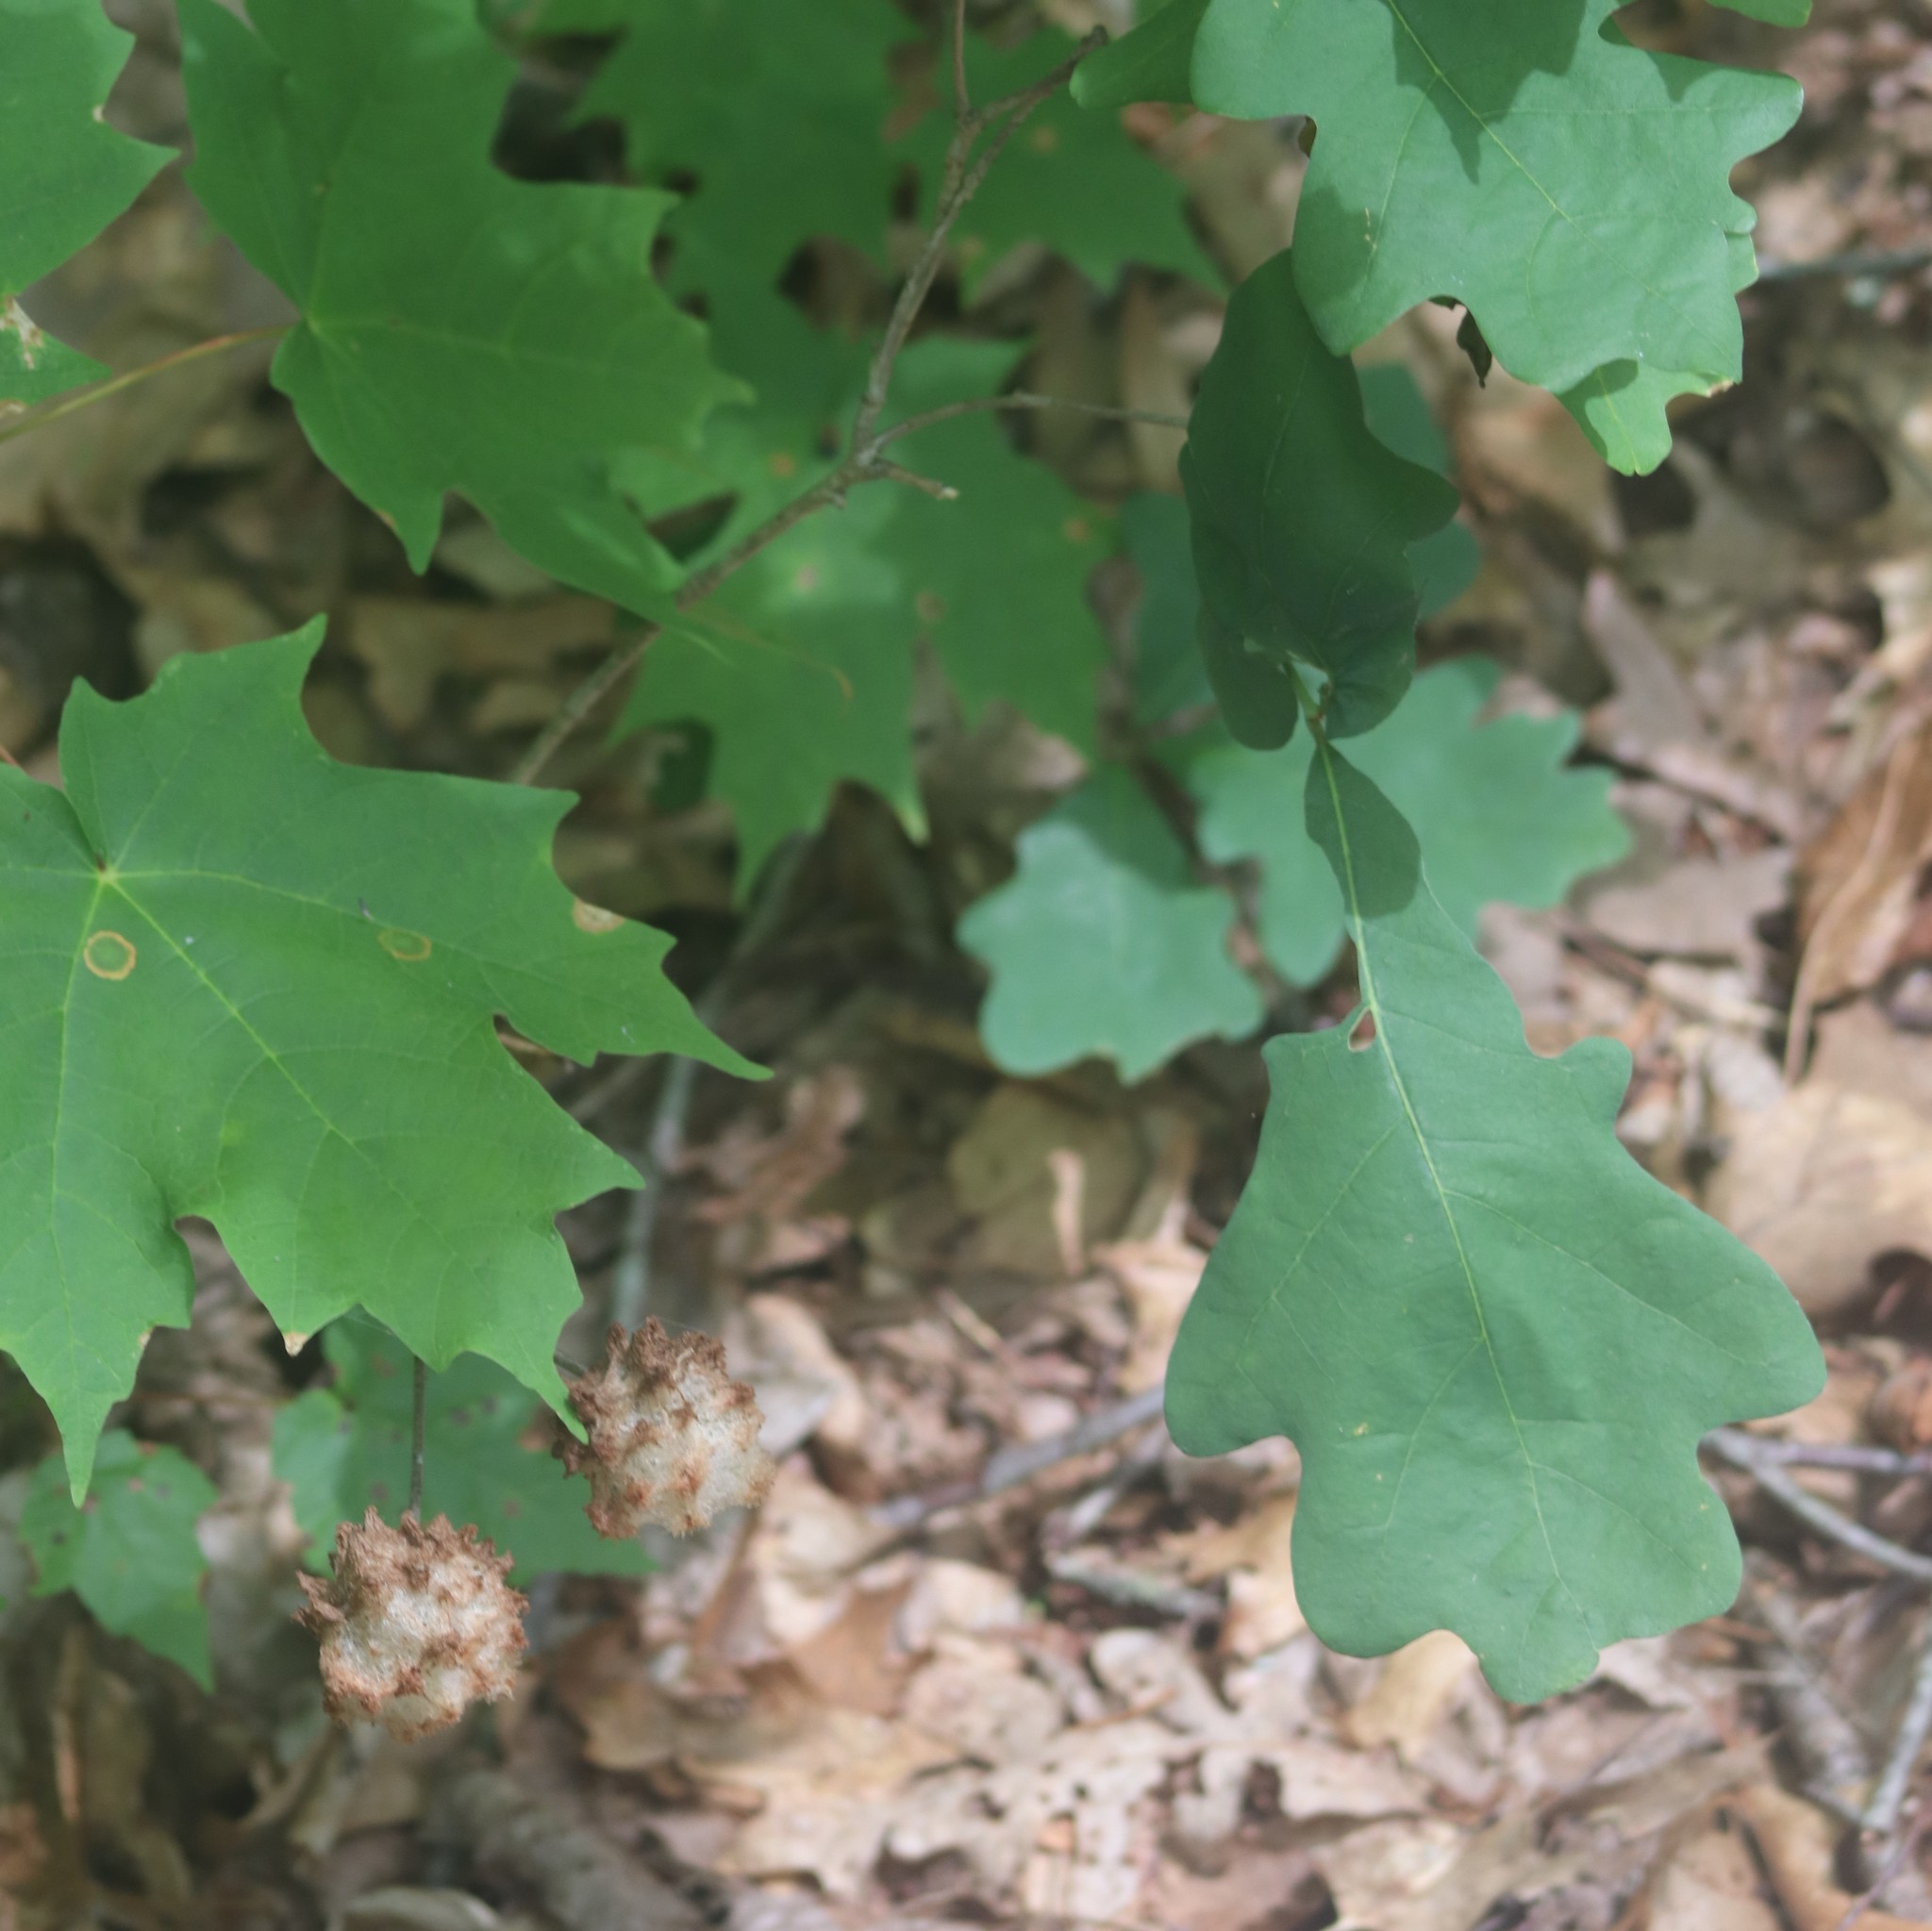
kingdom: Animalia
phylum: Arthropoda
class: Insecta
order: Hymenoptera
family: Cynipidae
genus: Callirhytis
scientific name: Callirhytis
